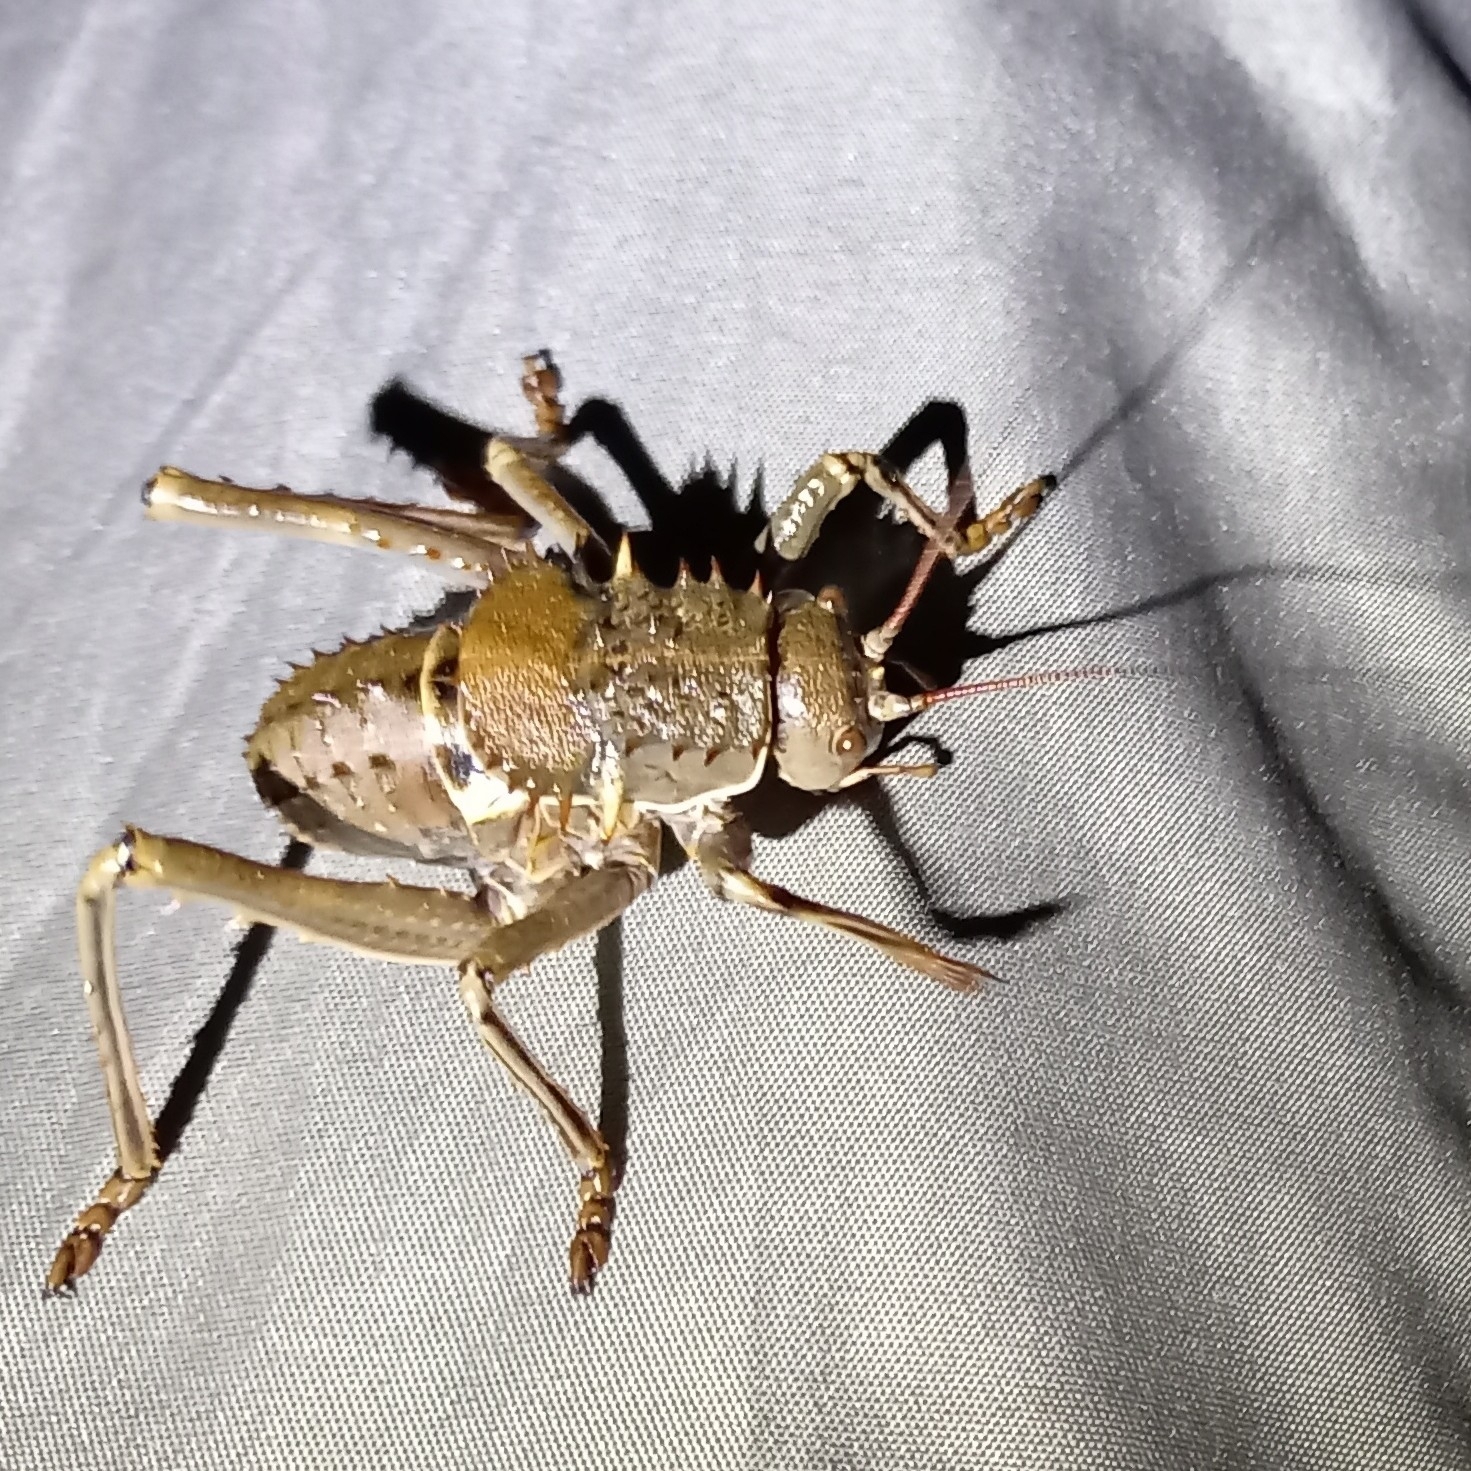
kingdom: Animalia
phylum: Arthropoda
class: Insecta
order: Orthoptera
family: Tettigoniidae
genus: Hetrodes
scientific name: Hetrodes pupus
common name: Koringkriek
